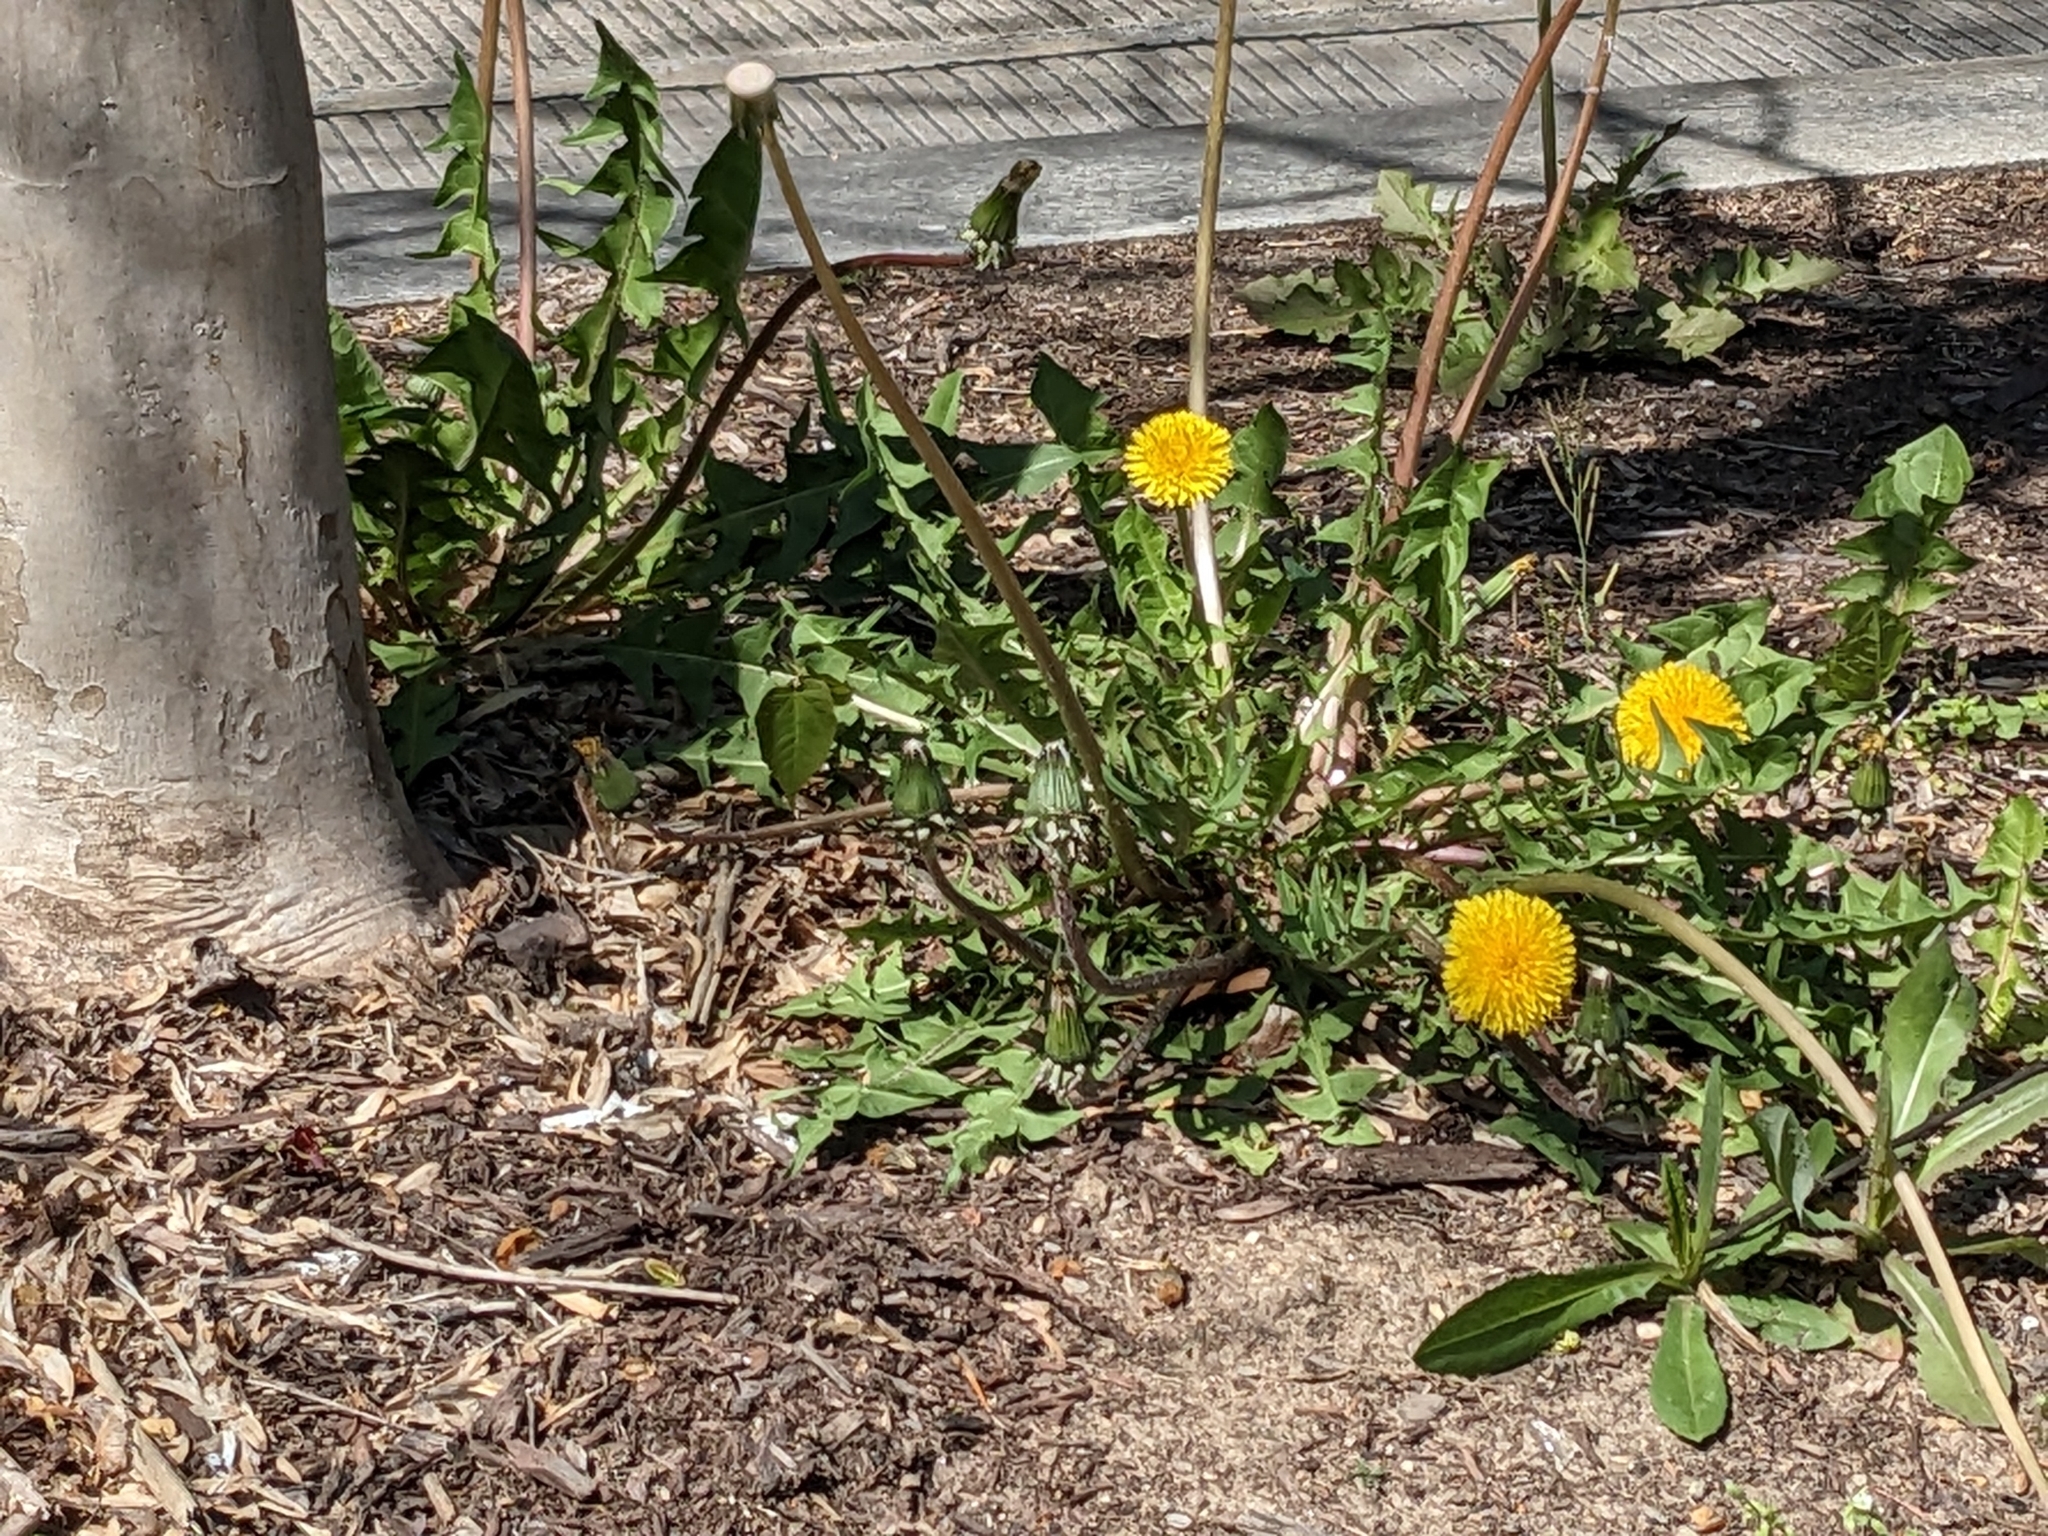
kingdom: Plantae
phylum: Tracheophyta
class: Magnoliopsida
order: Asterales
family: Asteraceae
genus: Taraxacum
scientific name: Taraxacum officinale
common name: Common dandelion
